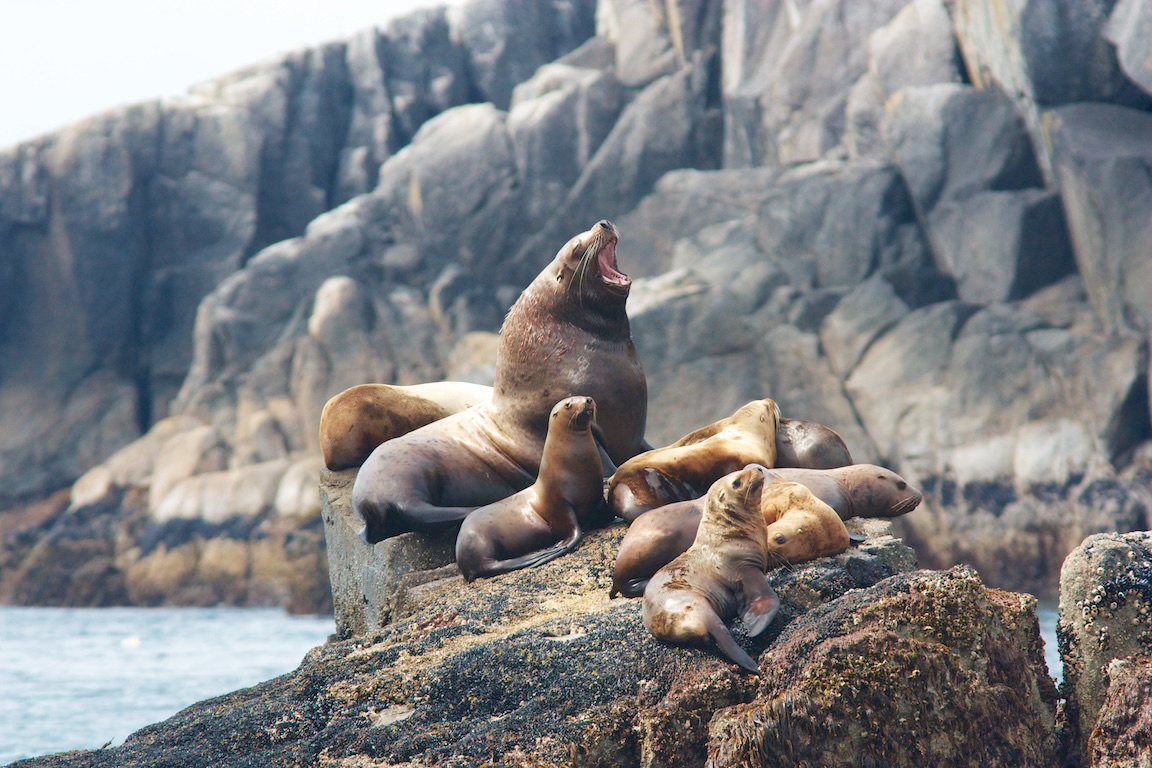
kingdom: Animalia
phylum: Chordata
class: Mammalia
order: Carnivora
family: Otariidae
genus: Eumetopias
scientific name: Eumetopias jubatus
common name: Steller sea lion
